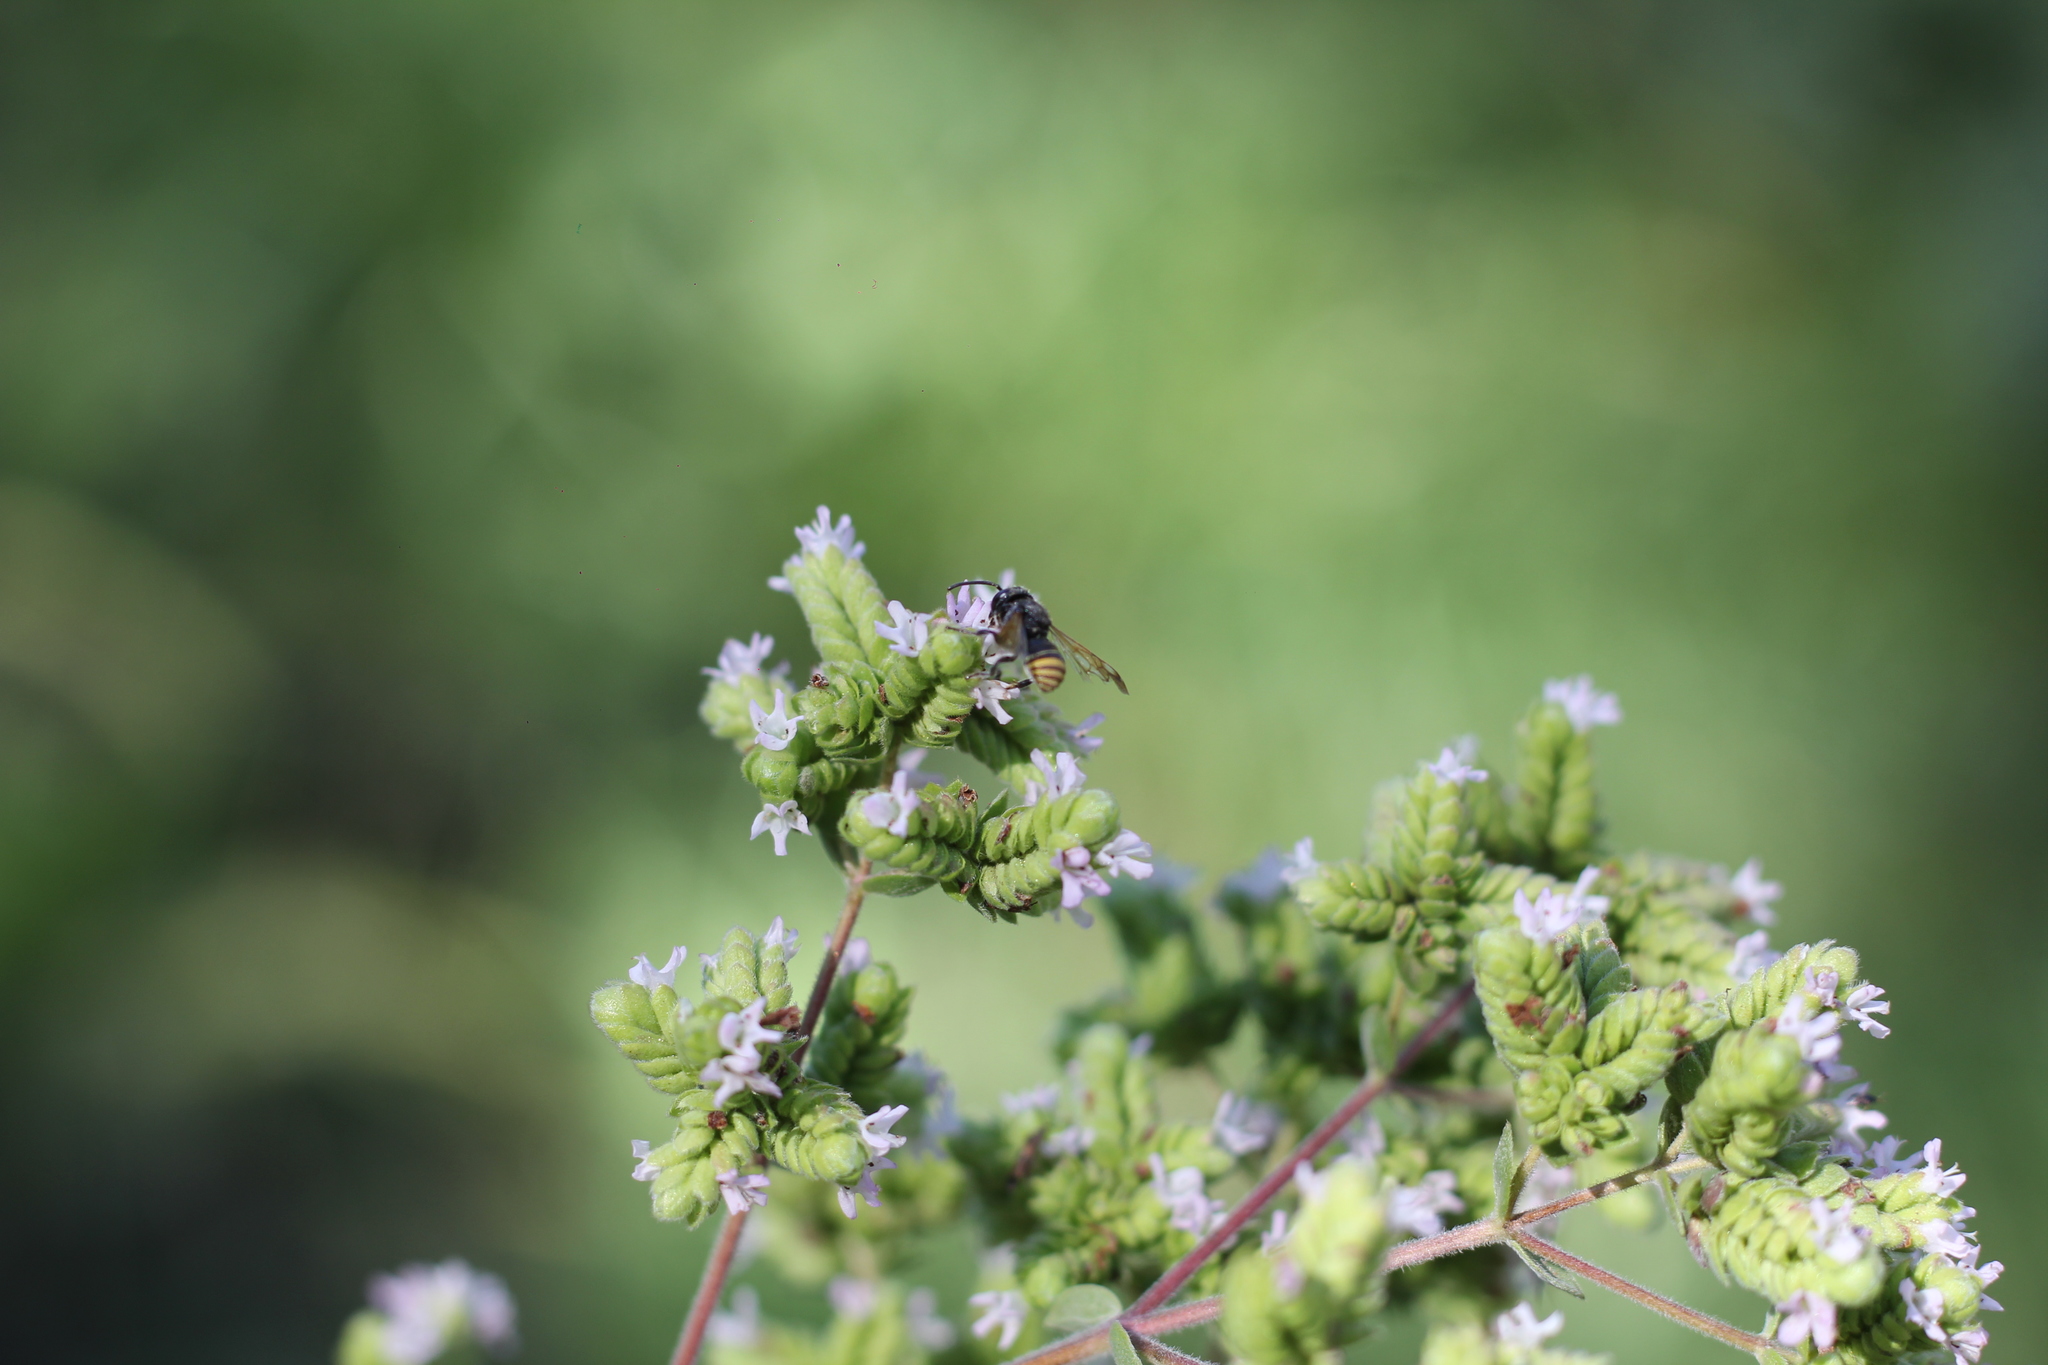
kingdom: Animalia
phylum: Arthropoda
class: Insecta
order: Hymenoptera
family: Megachilidae
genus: Anthodioctes
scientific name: Anthodioctes megachiloides
